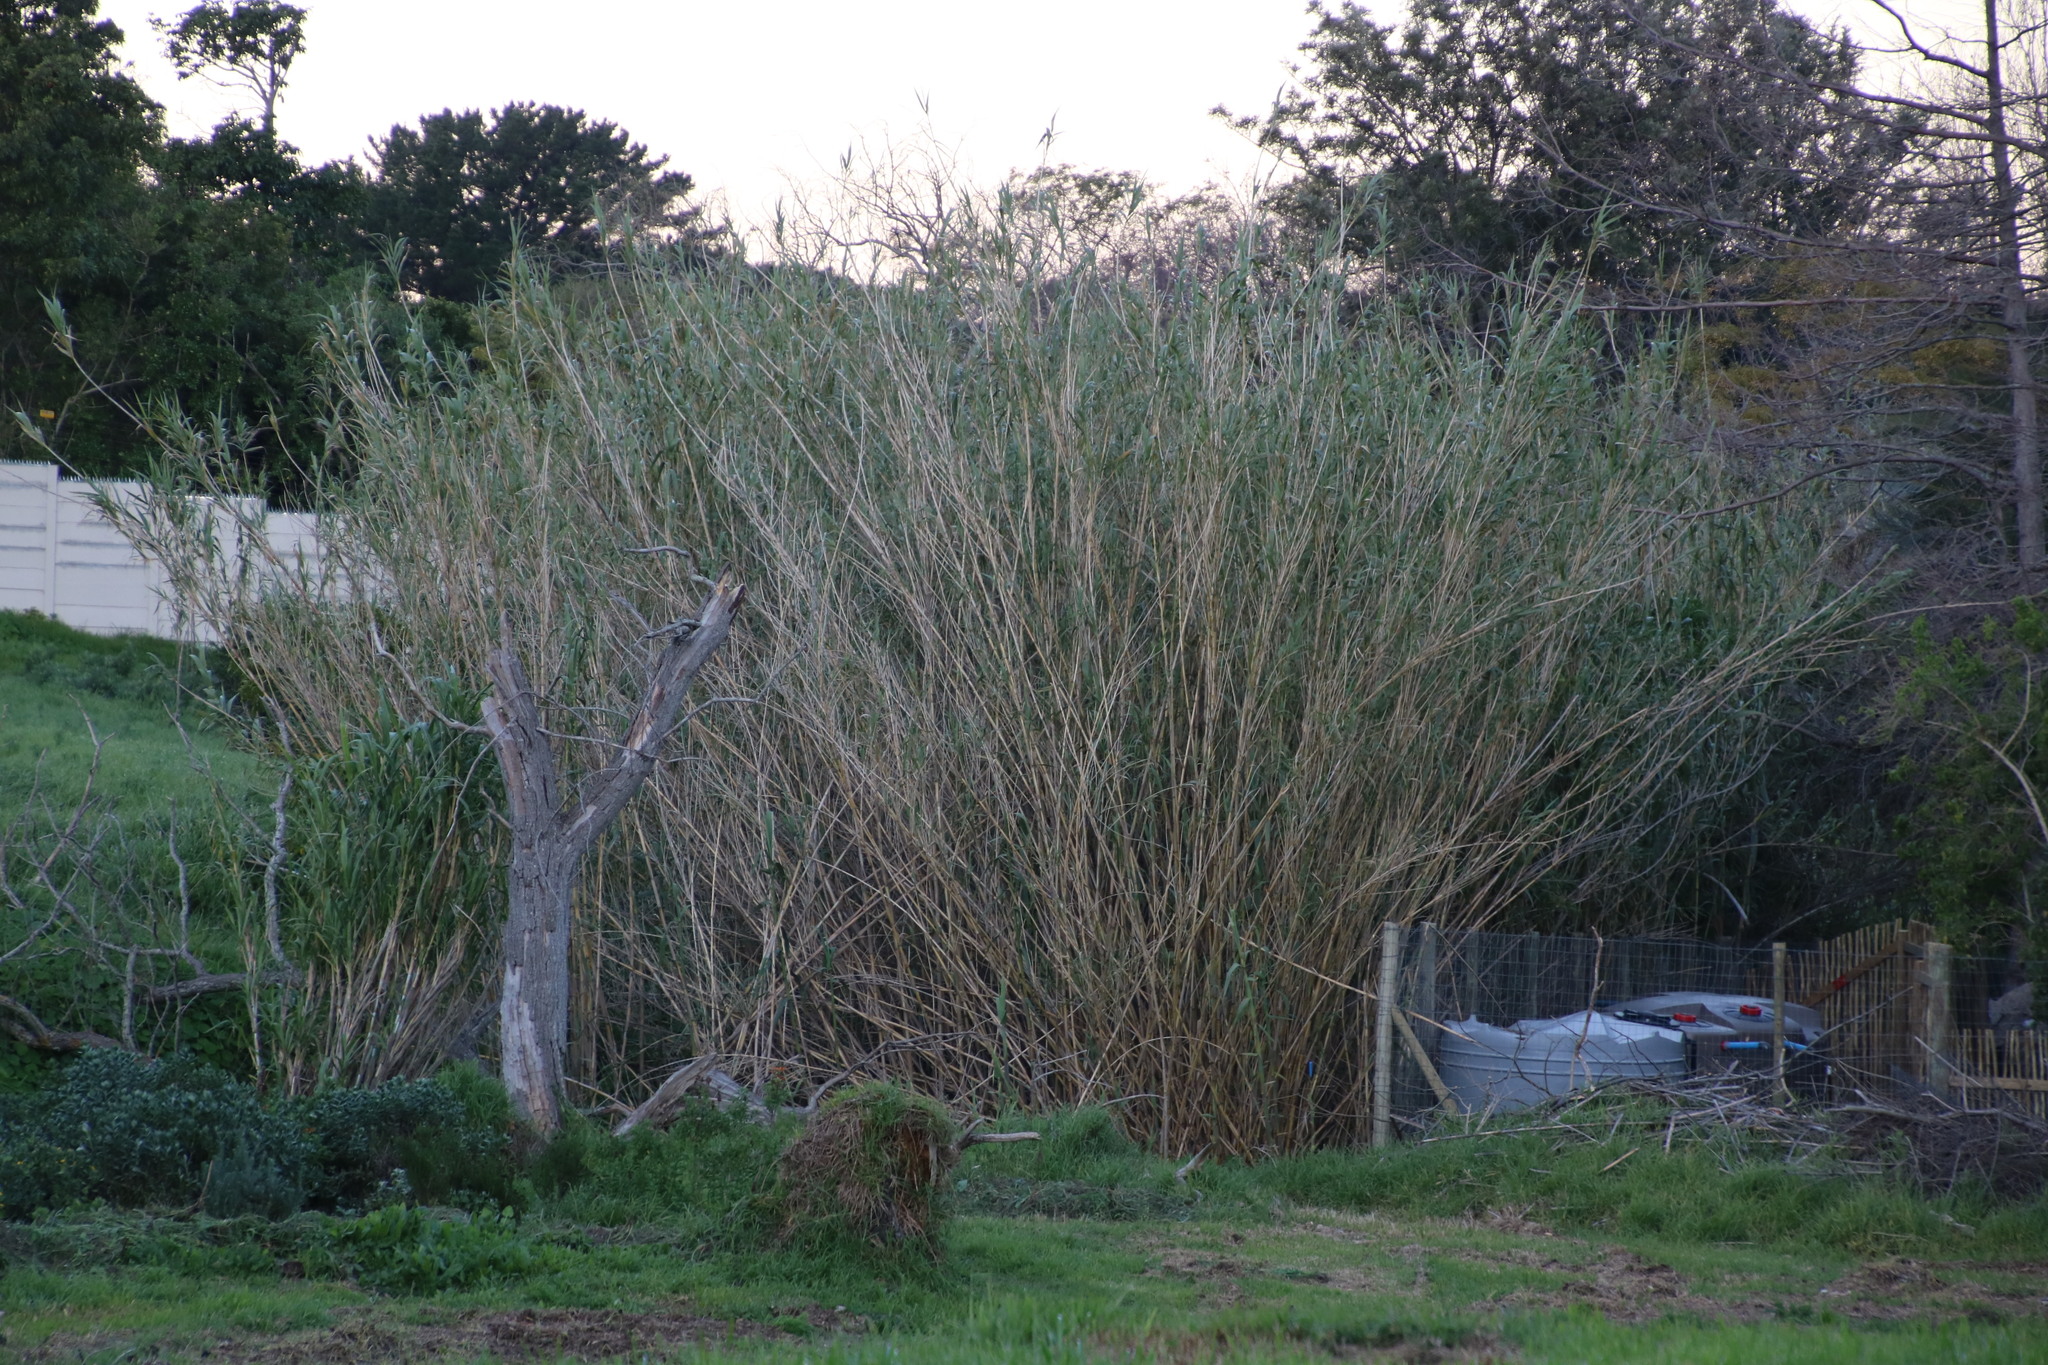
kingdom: Plantae
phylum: Tracheophyta
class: Liliopsida
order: Poales
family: Poaceae
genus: Arundo
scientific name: Arundo donax
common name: Giant reed
